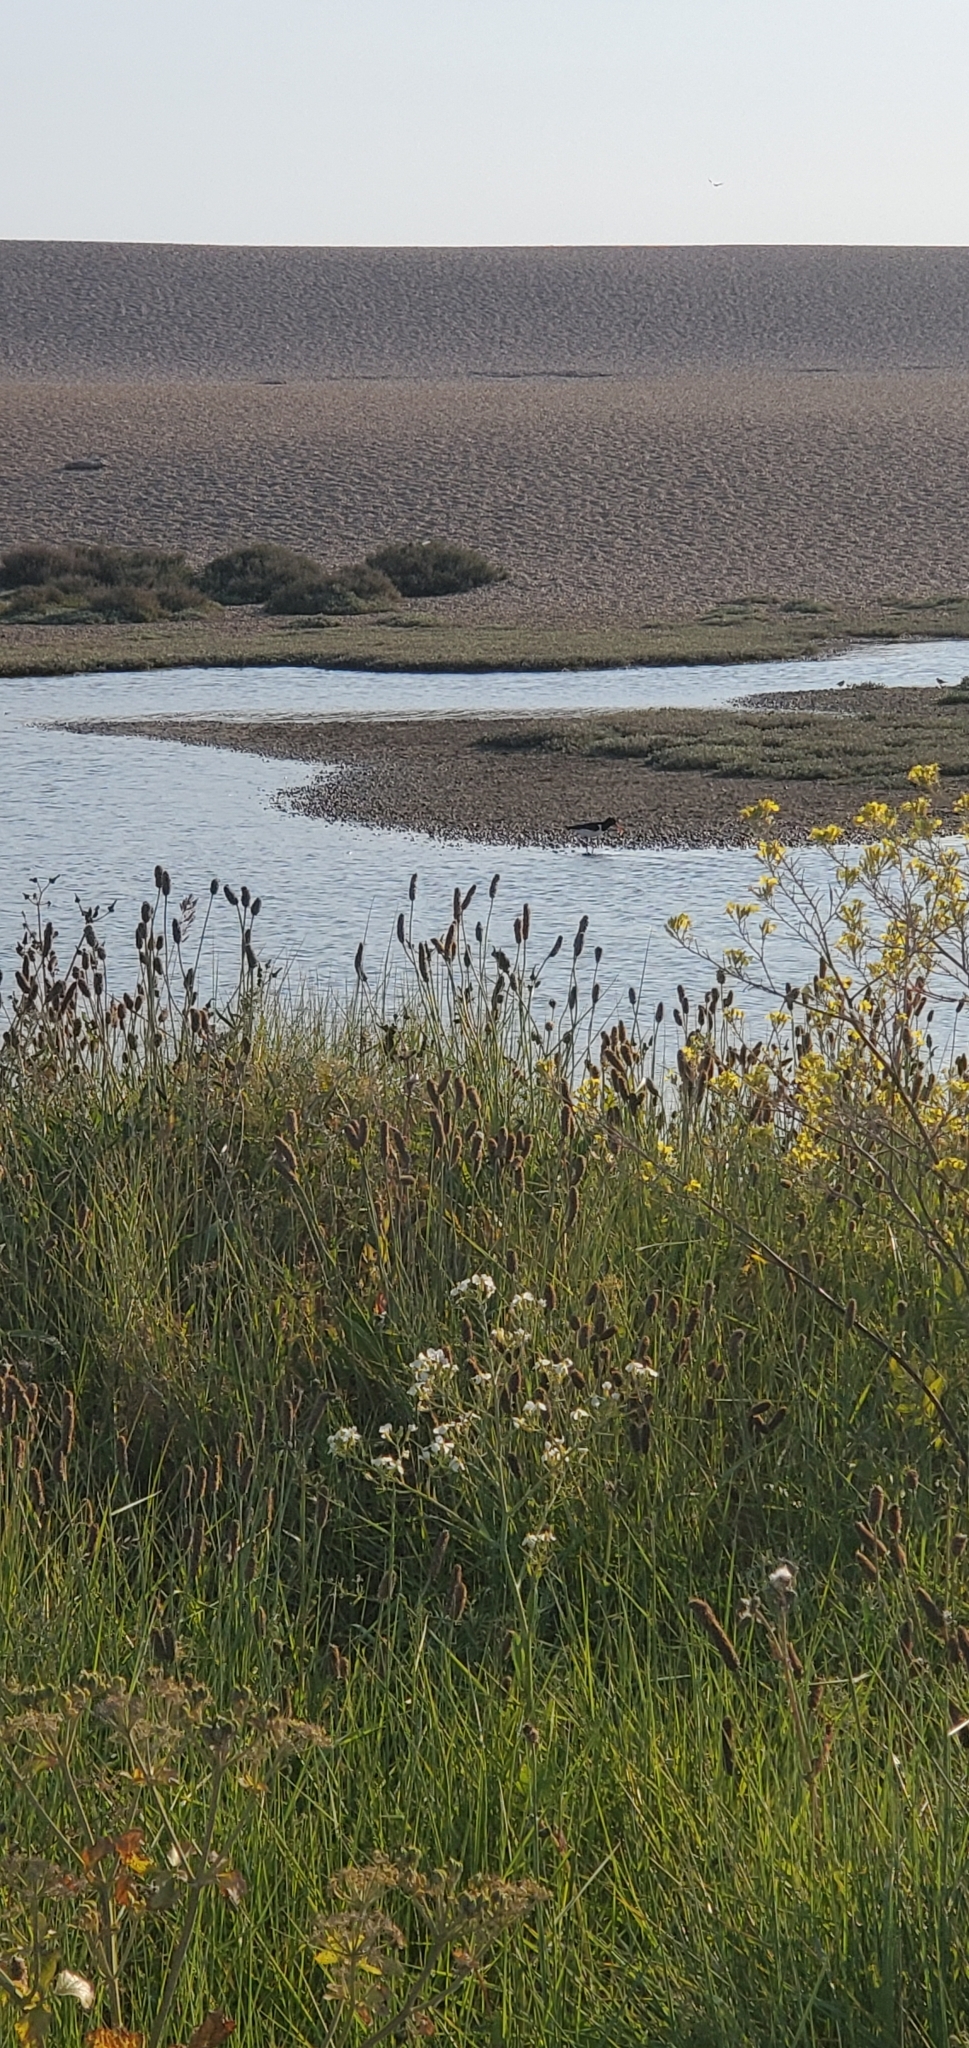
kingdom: Animalia
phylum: Chordata
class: Aves
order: Charadriiformes
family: Haematopodidae
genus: Haematopus
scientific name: Haematopus ostralegus
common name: Eurasian oystercatcher
